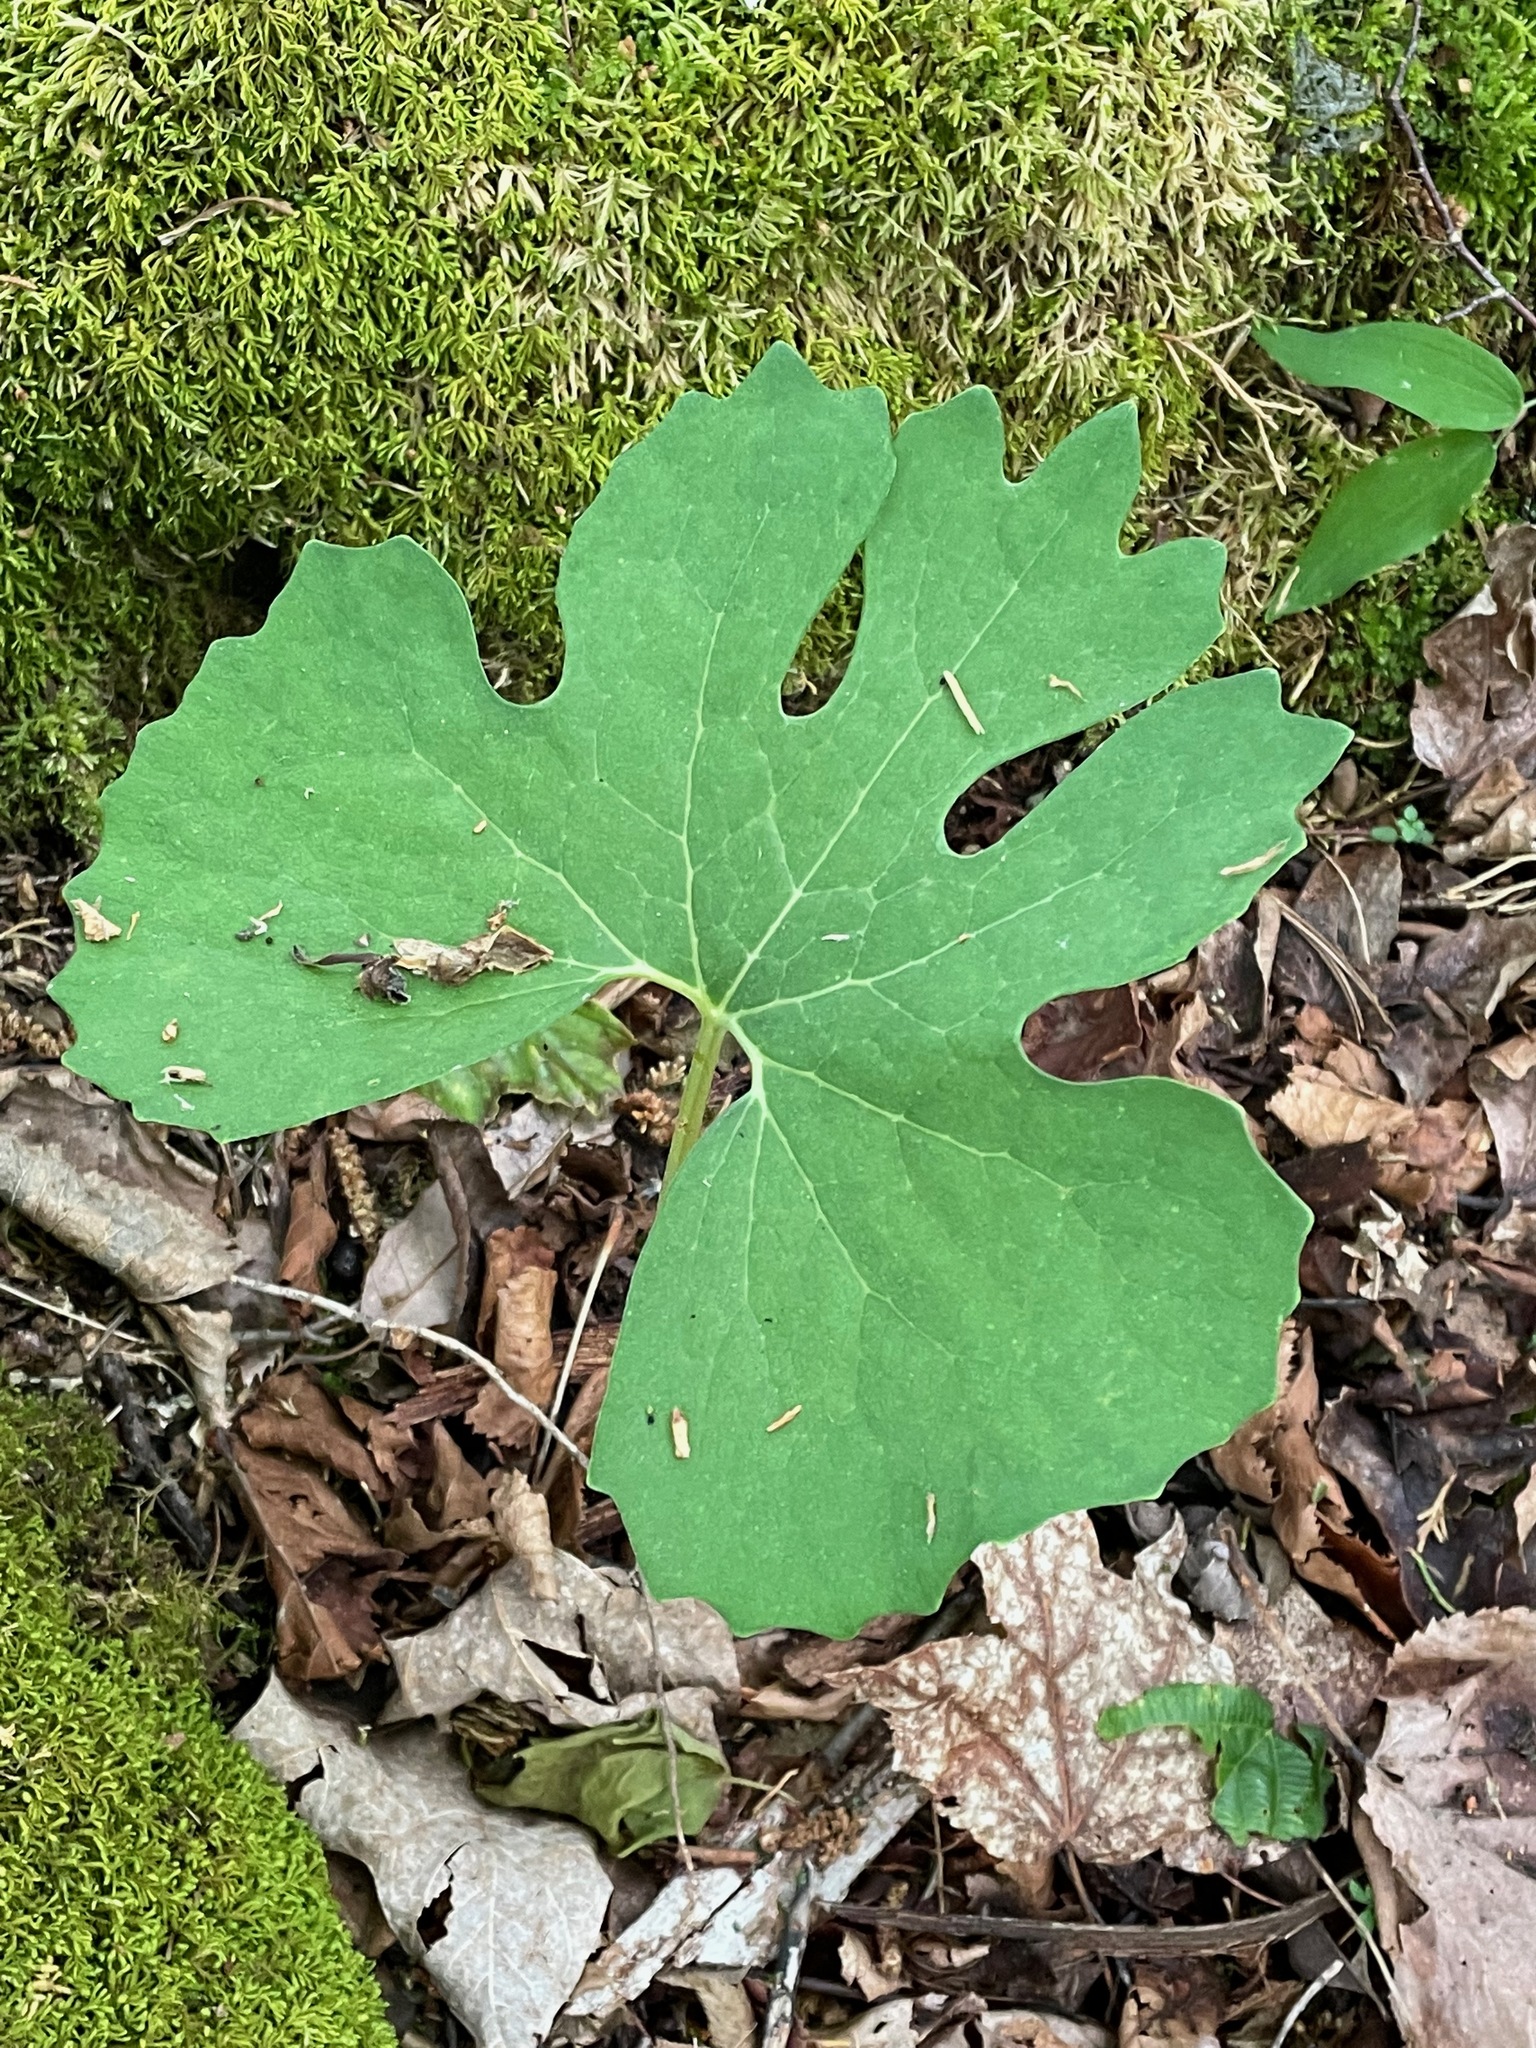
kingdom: Plantae
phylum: Tracheophyta
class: Magnoliopsida
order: Ranunculales
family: Papaveraceae
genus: Sanguinaria
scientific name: Sanguinaria canadensis
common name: Bloodroot
